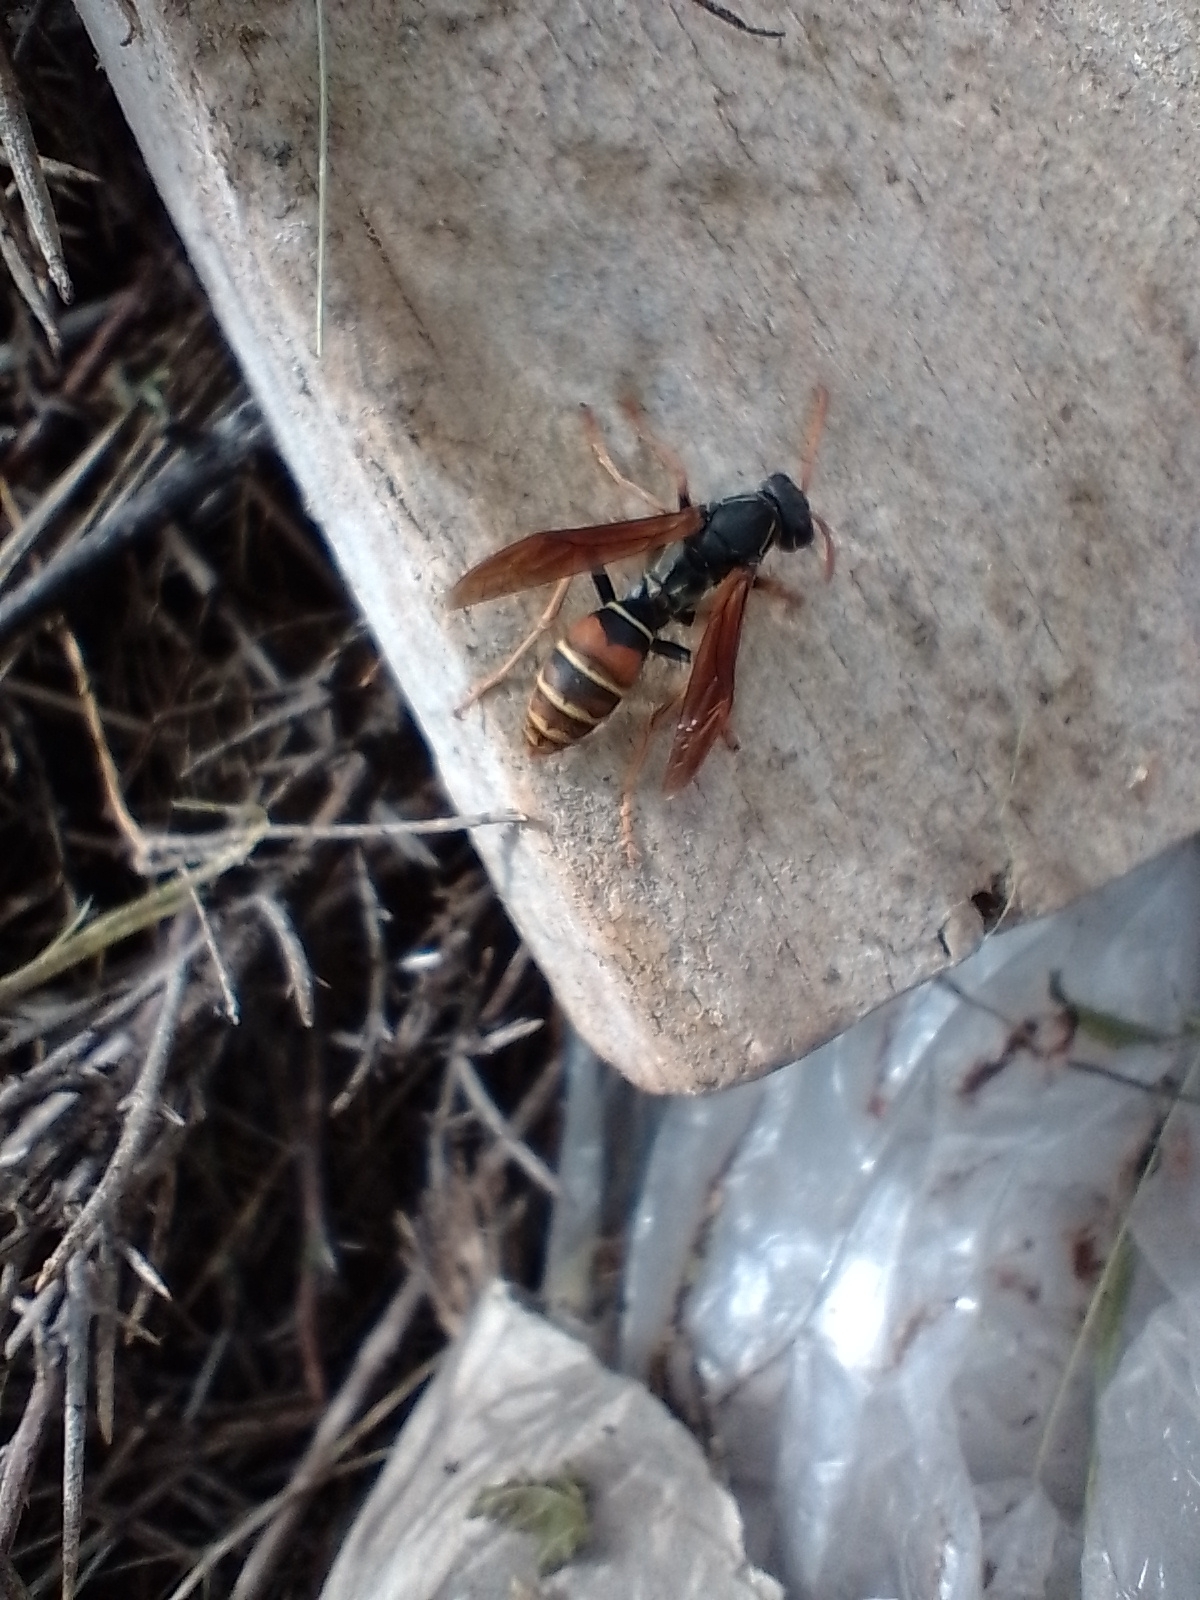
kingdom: Animalia
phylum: Arthropoda
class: Insecta
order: Hymenoptera
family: Eumenidae
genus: Polistes
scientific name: Polistes billardieri
